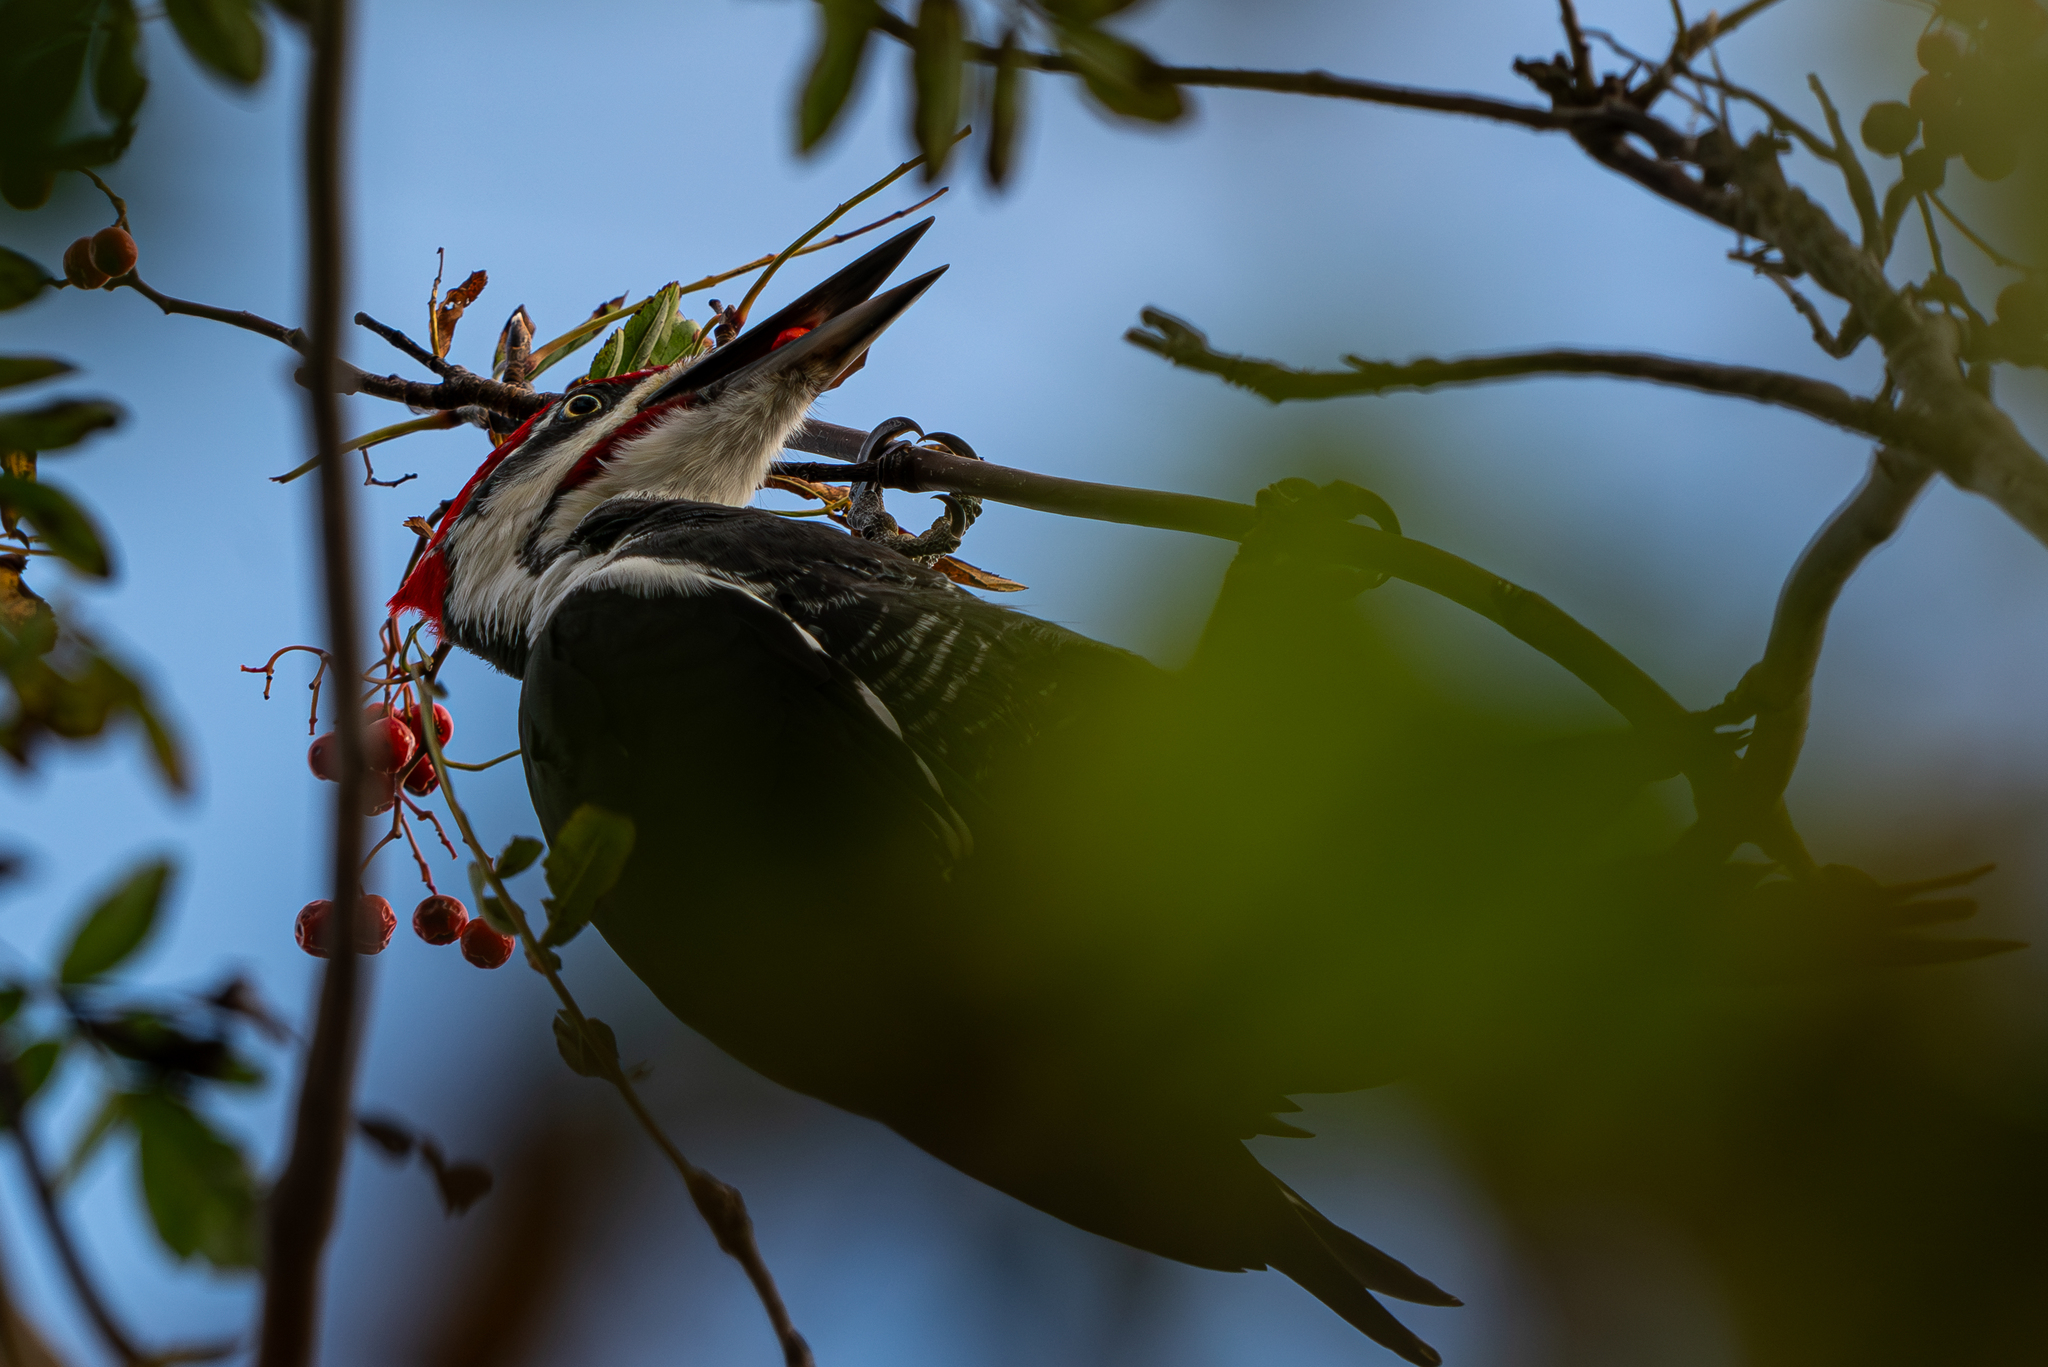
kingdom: Animalia
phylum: Chordata
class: Aves
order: Piciformes
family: Picidae
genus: Dryocopus
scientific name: Dryocopus pileatus
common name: Pileated woodpecker
